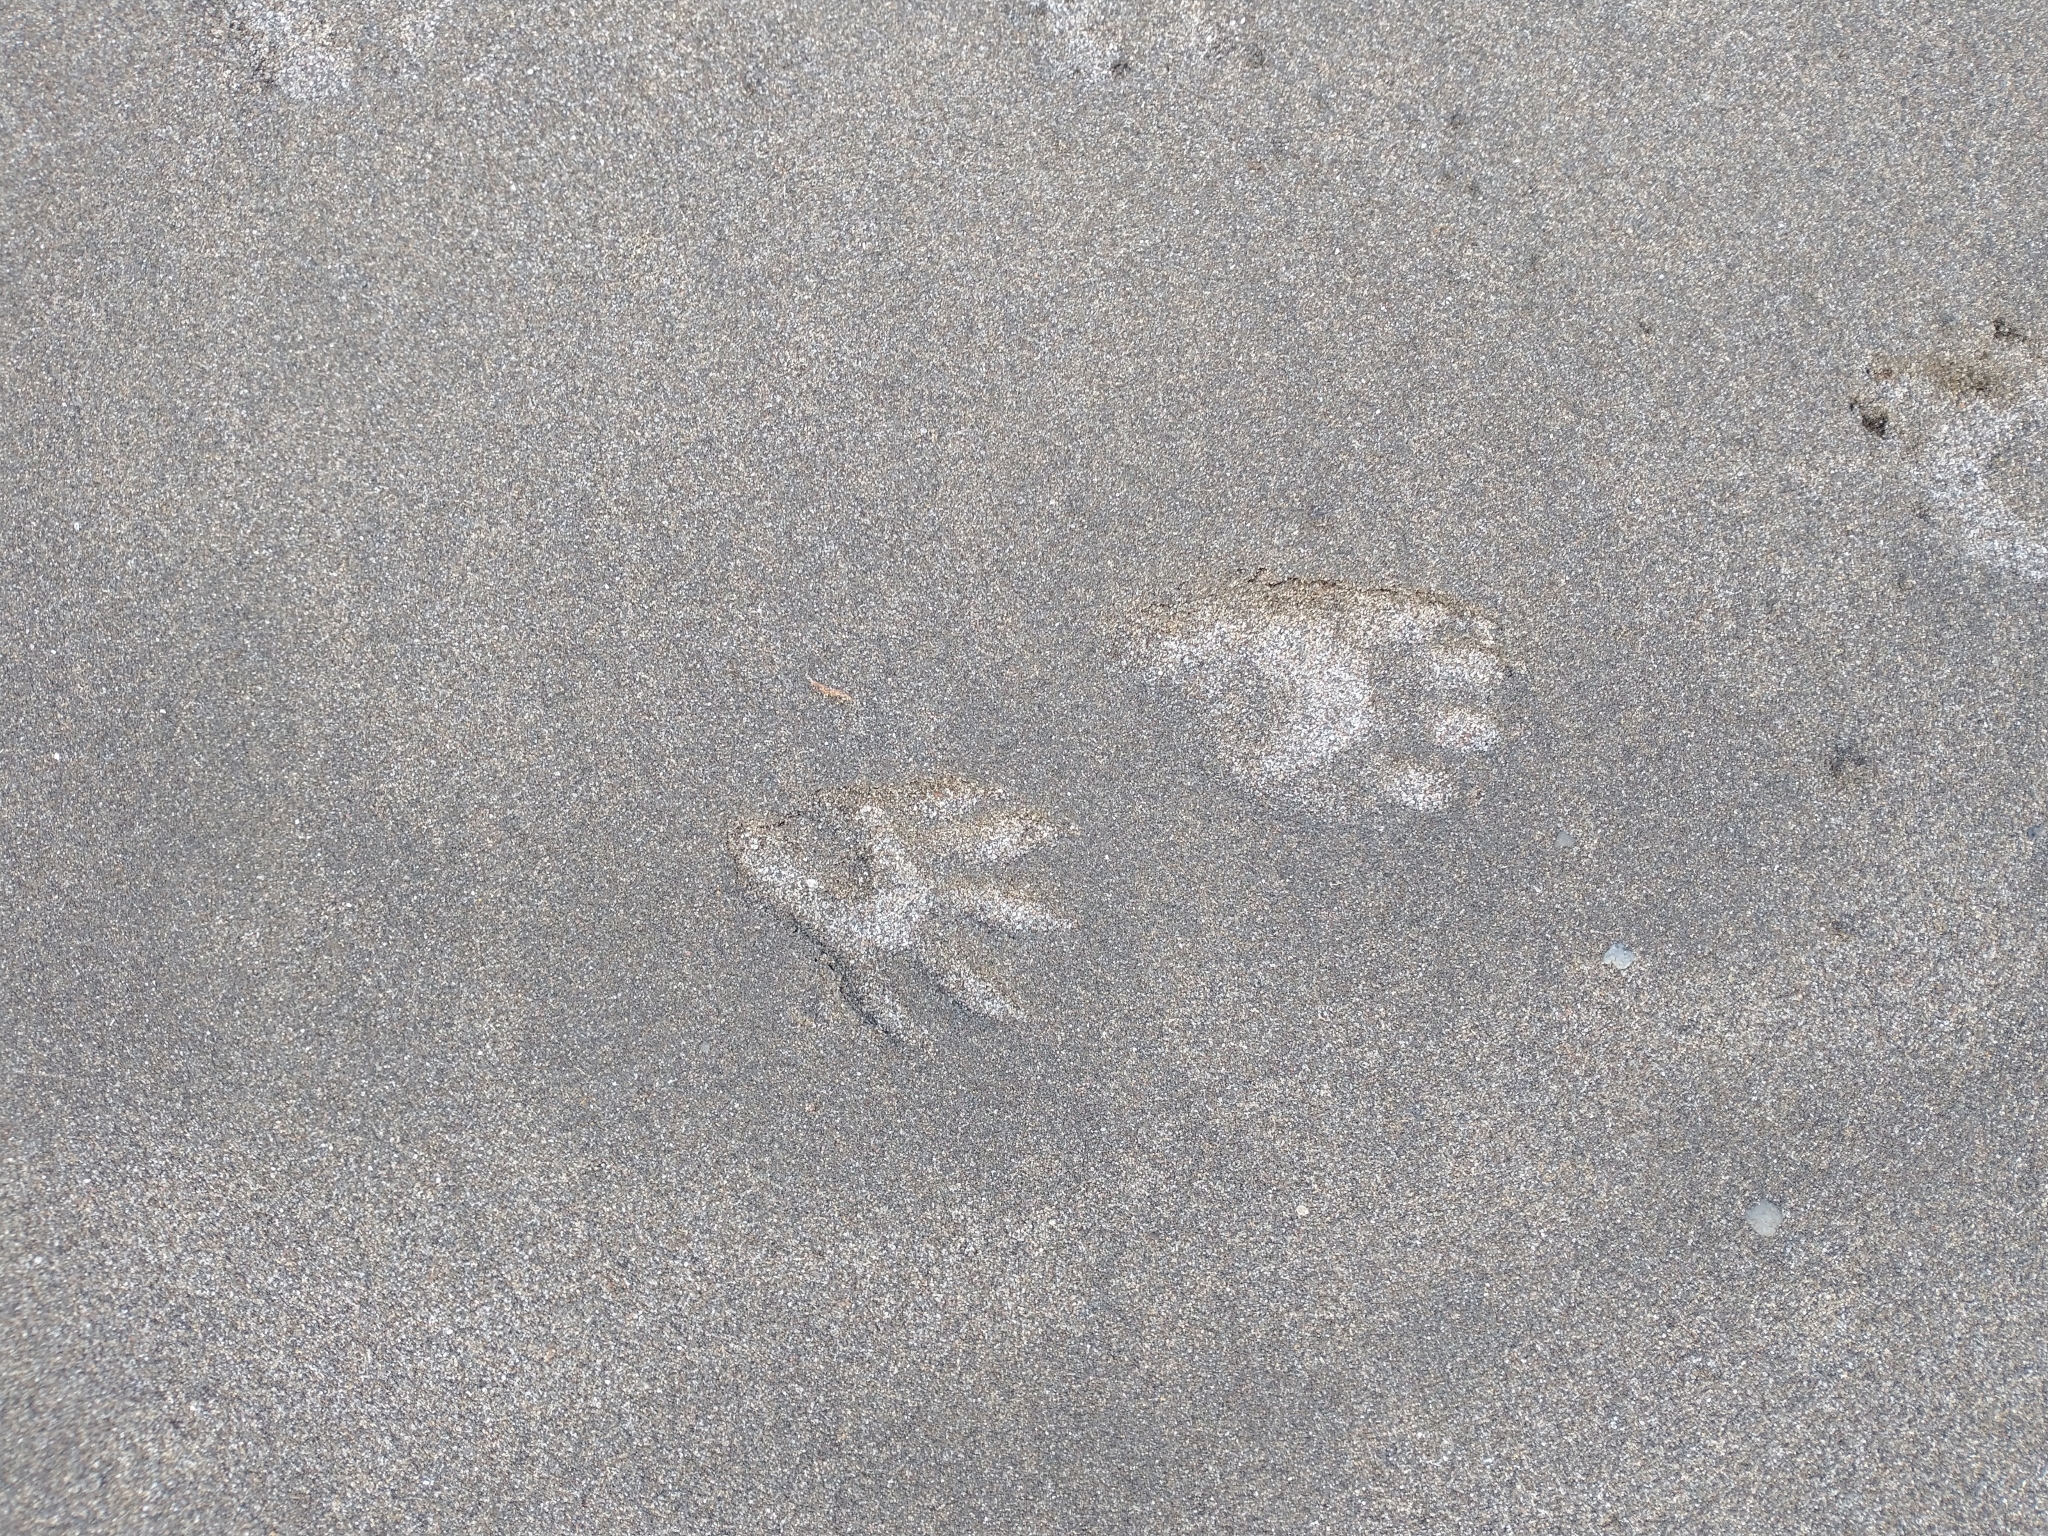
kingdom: Animalia
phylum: Chordata
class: Mammalia
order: Carnivora
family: Procyonidae
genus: Procyon
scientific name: Procyon lotor
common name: Raccoon
